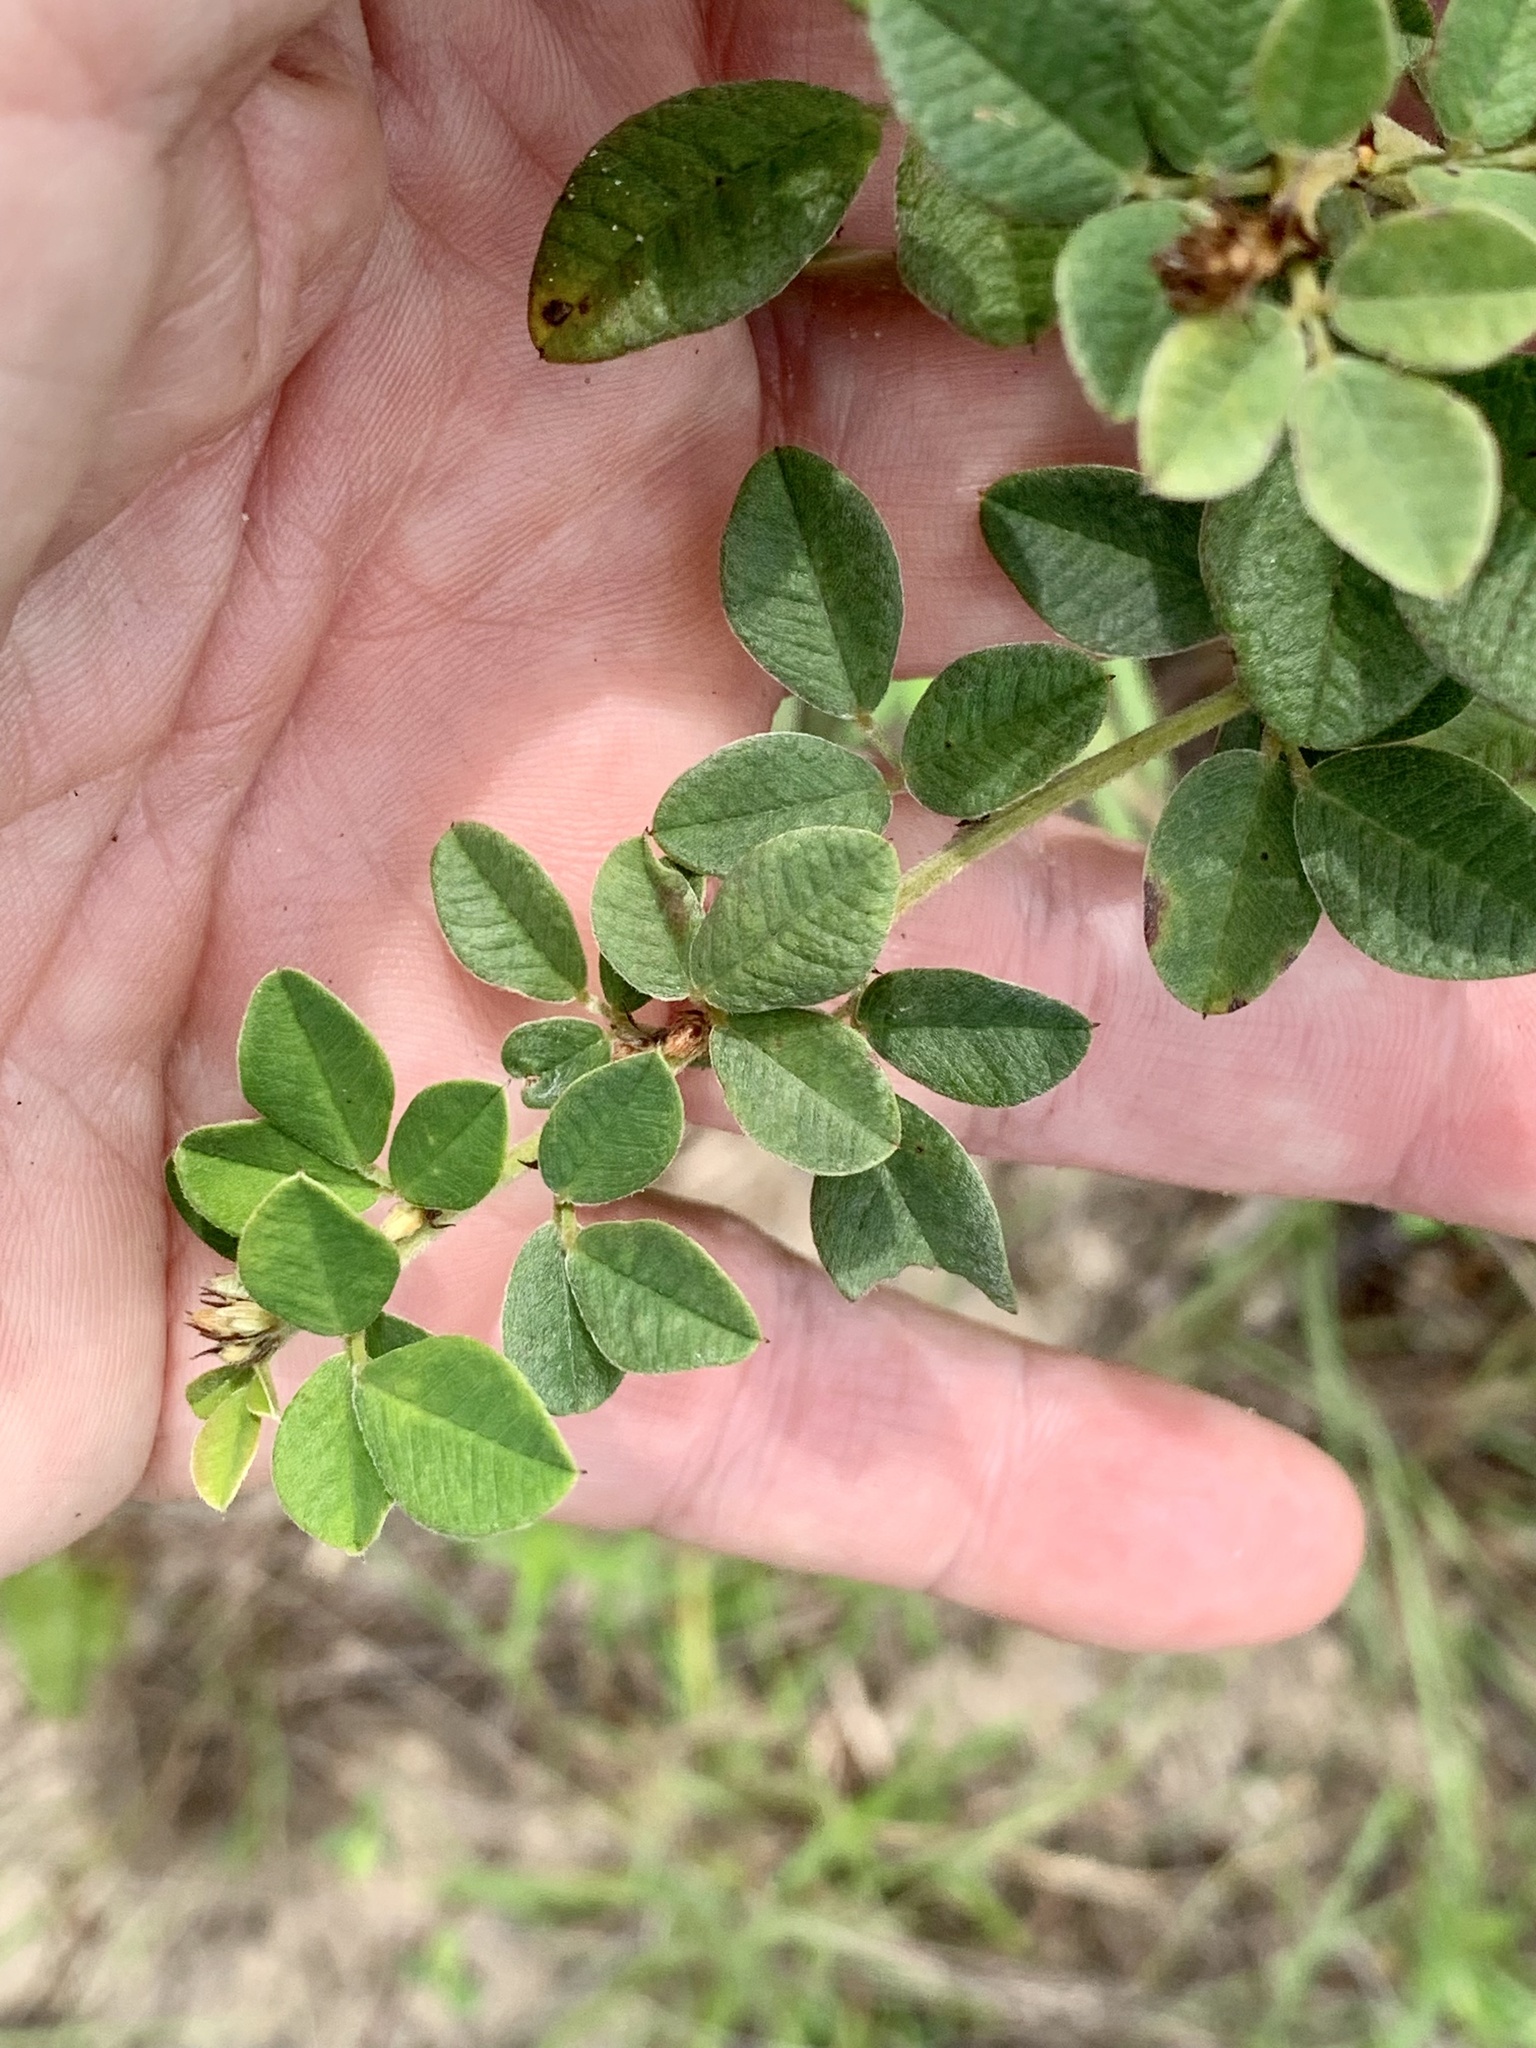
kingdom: Plantae
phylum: Tracheophyta
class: Magnoliopsida
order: Fabales
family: Fabaceae
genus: Lespedeza
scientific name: Lespedeza hirta
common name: Hairy lespedeza
